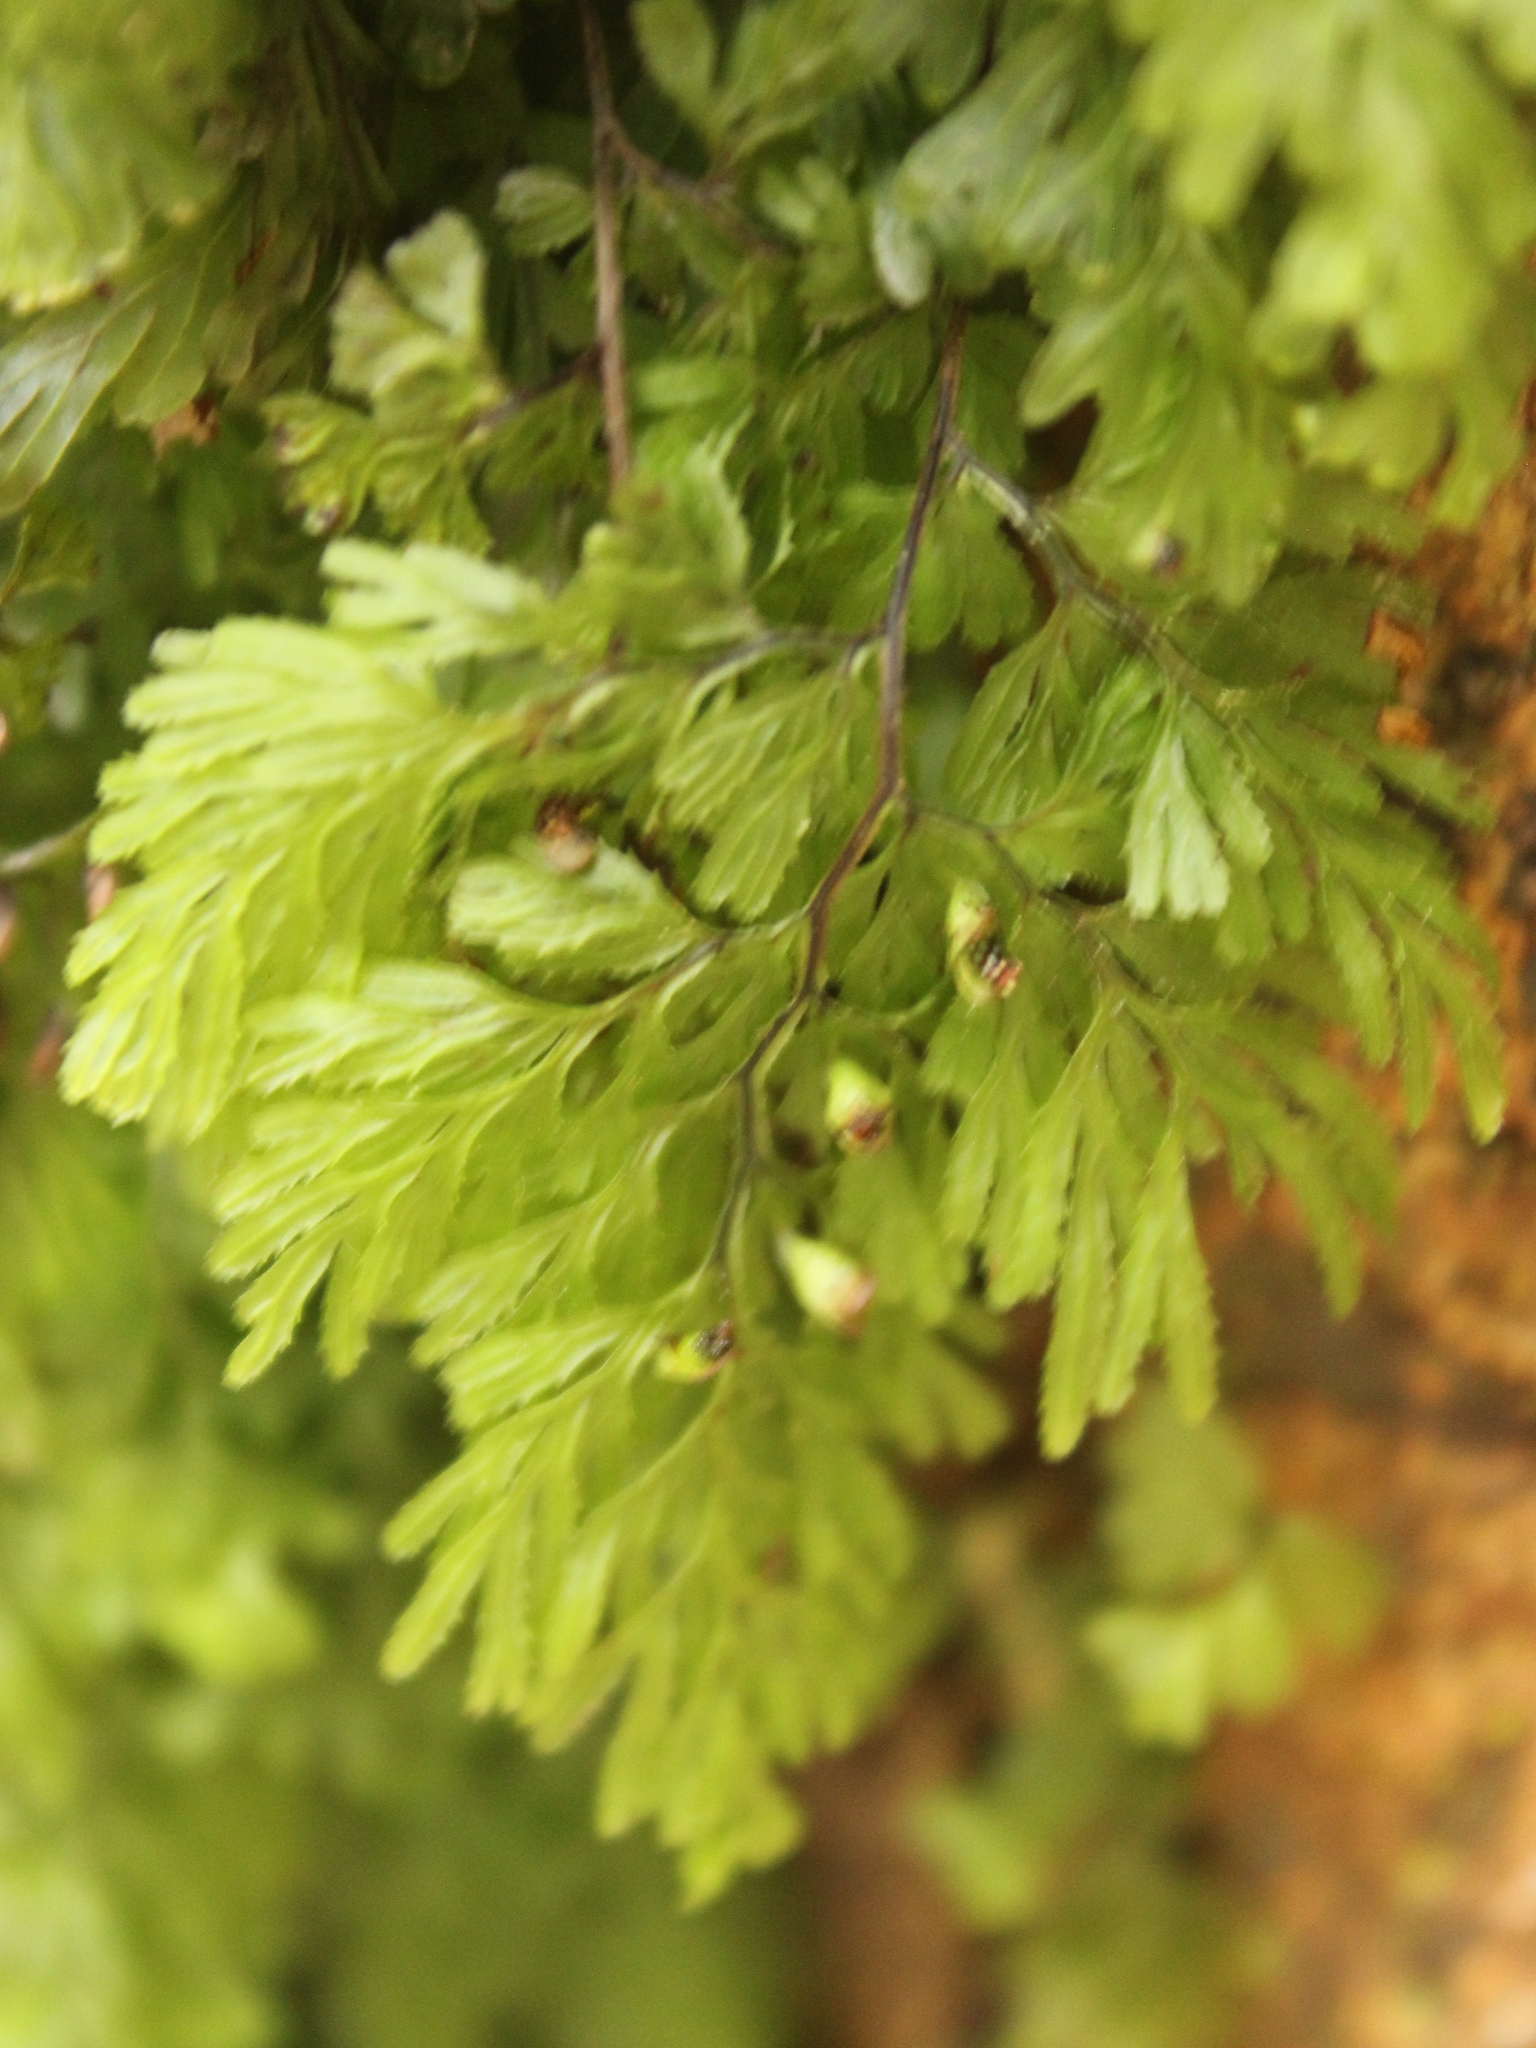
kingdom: Plantae
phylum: Tracheophyta
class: Polypodiopsida
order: Hymenophyllales
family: Hymenophyllaceae
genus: Hymenophyllum
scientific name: Hymenophyllum multifidum
